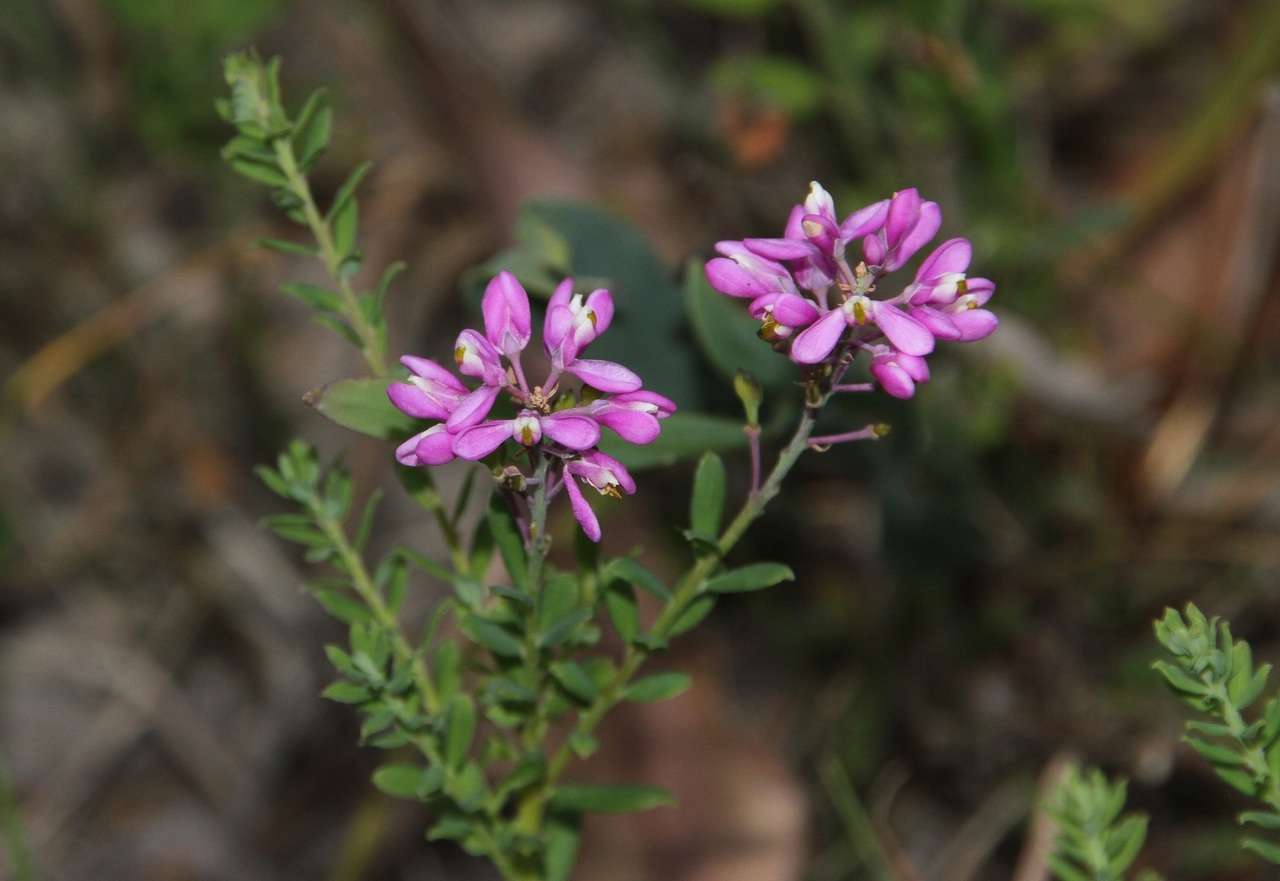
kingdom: Plantae
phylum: Tracheophyta
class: Magnoliopsida
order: Fabales
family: Polygalaceae
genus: Comesperma
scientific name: Comesperma ericinum
